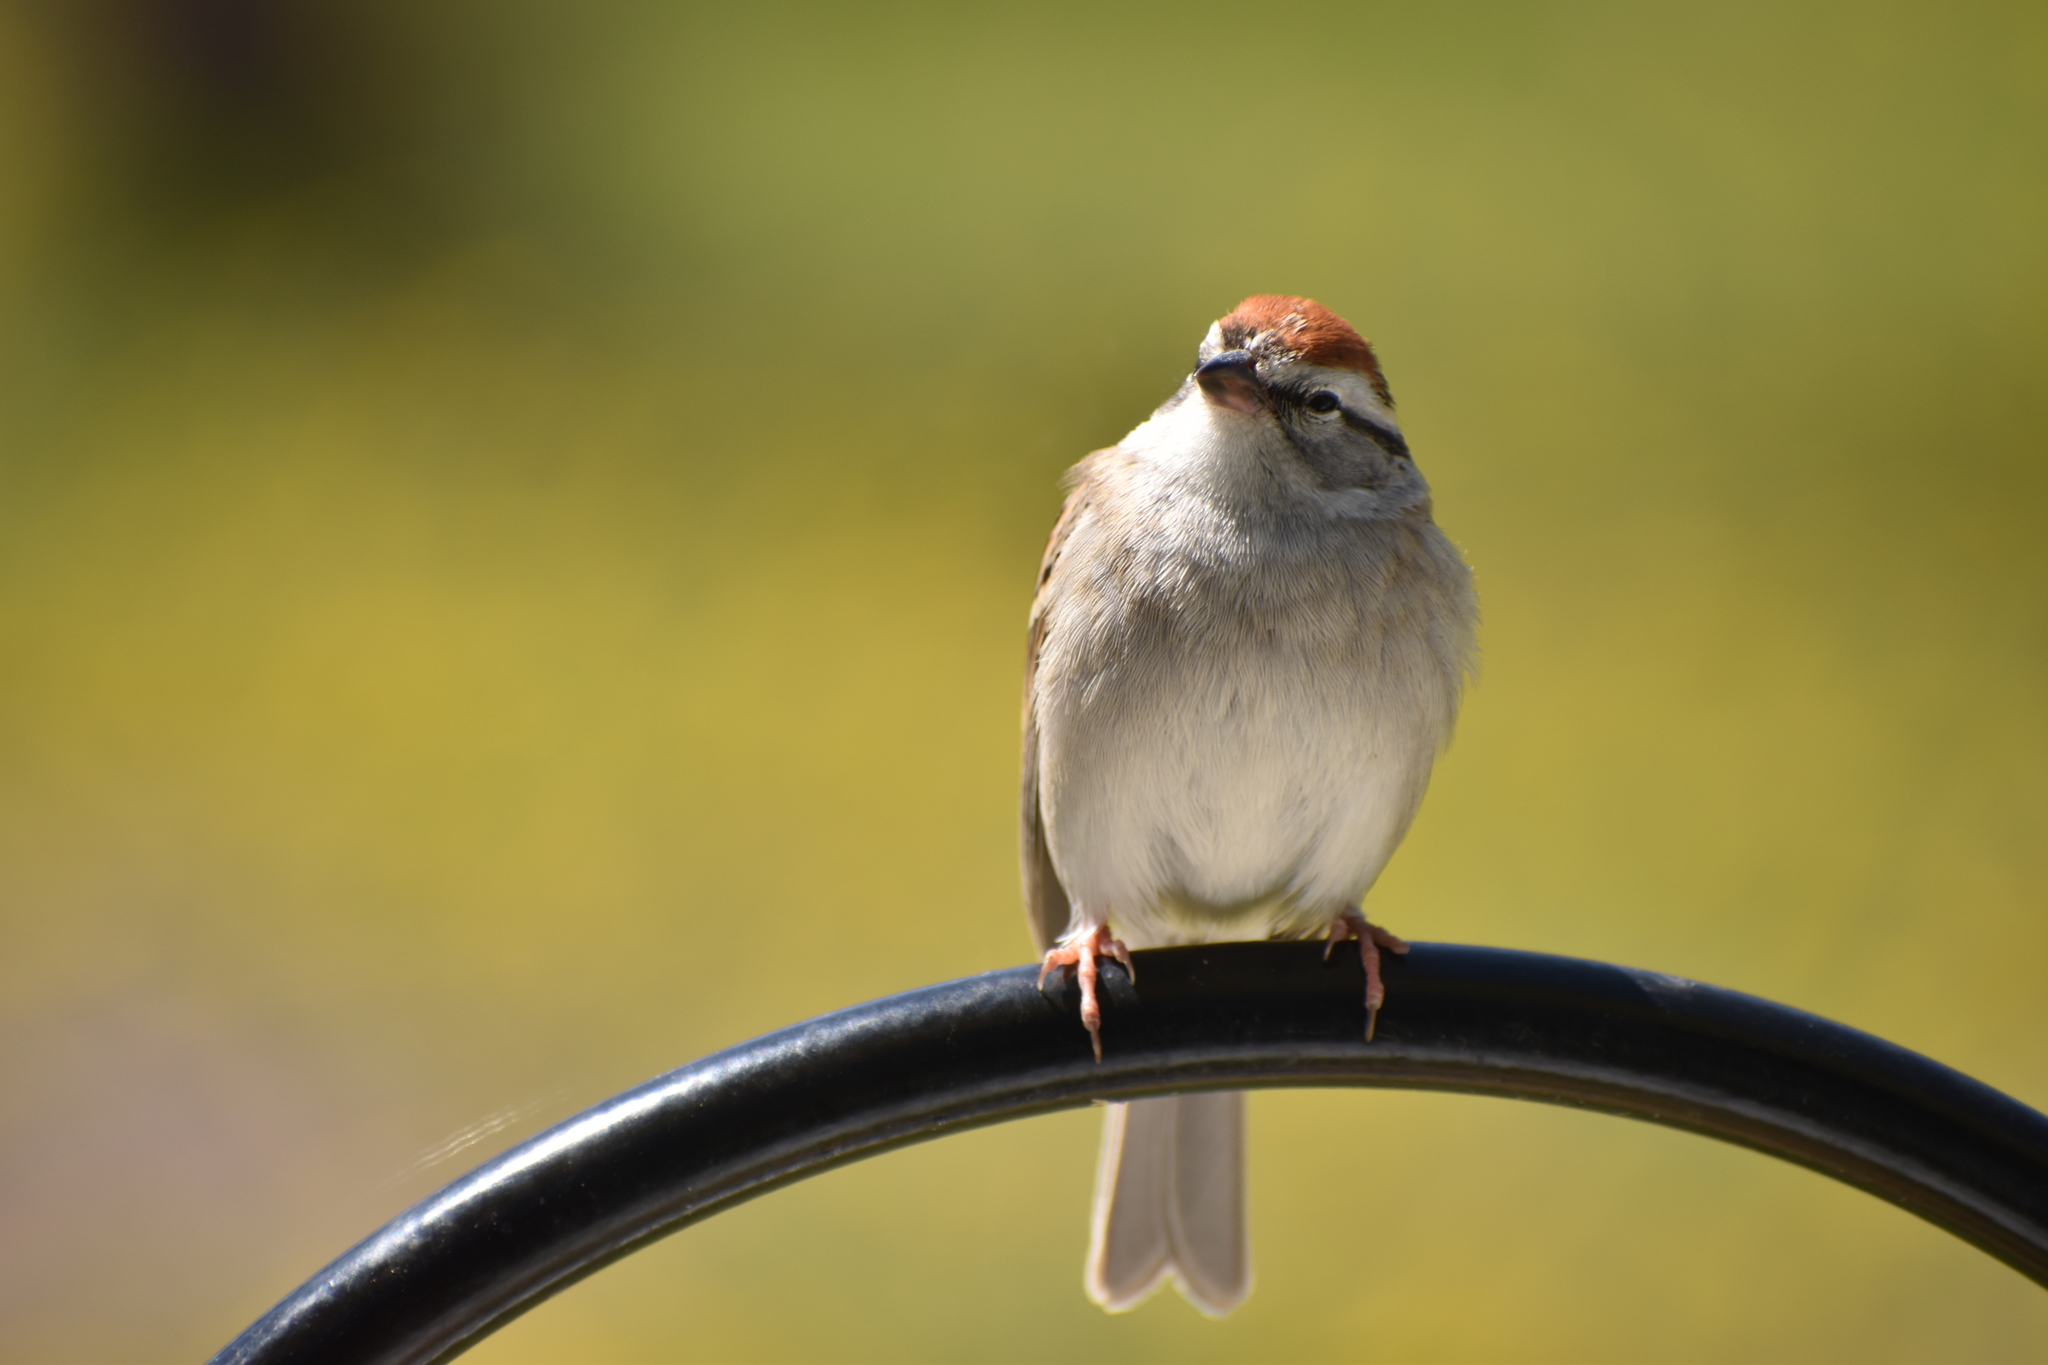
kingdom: Animalia
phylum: Chordata
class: Aves
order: Passeriformes
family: Passerellidae
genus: Spizella
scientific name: Spizella passerina
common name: Chipping sparrow
